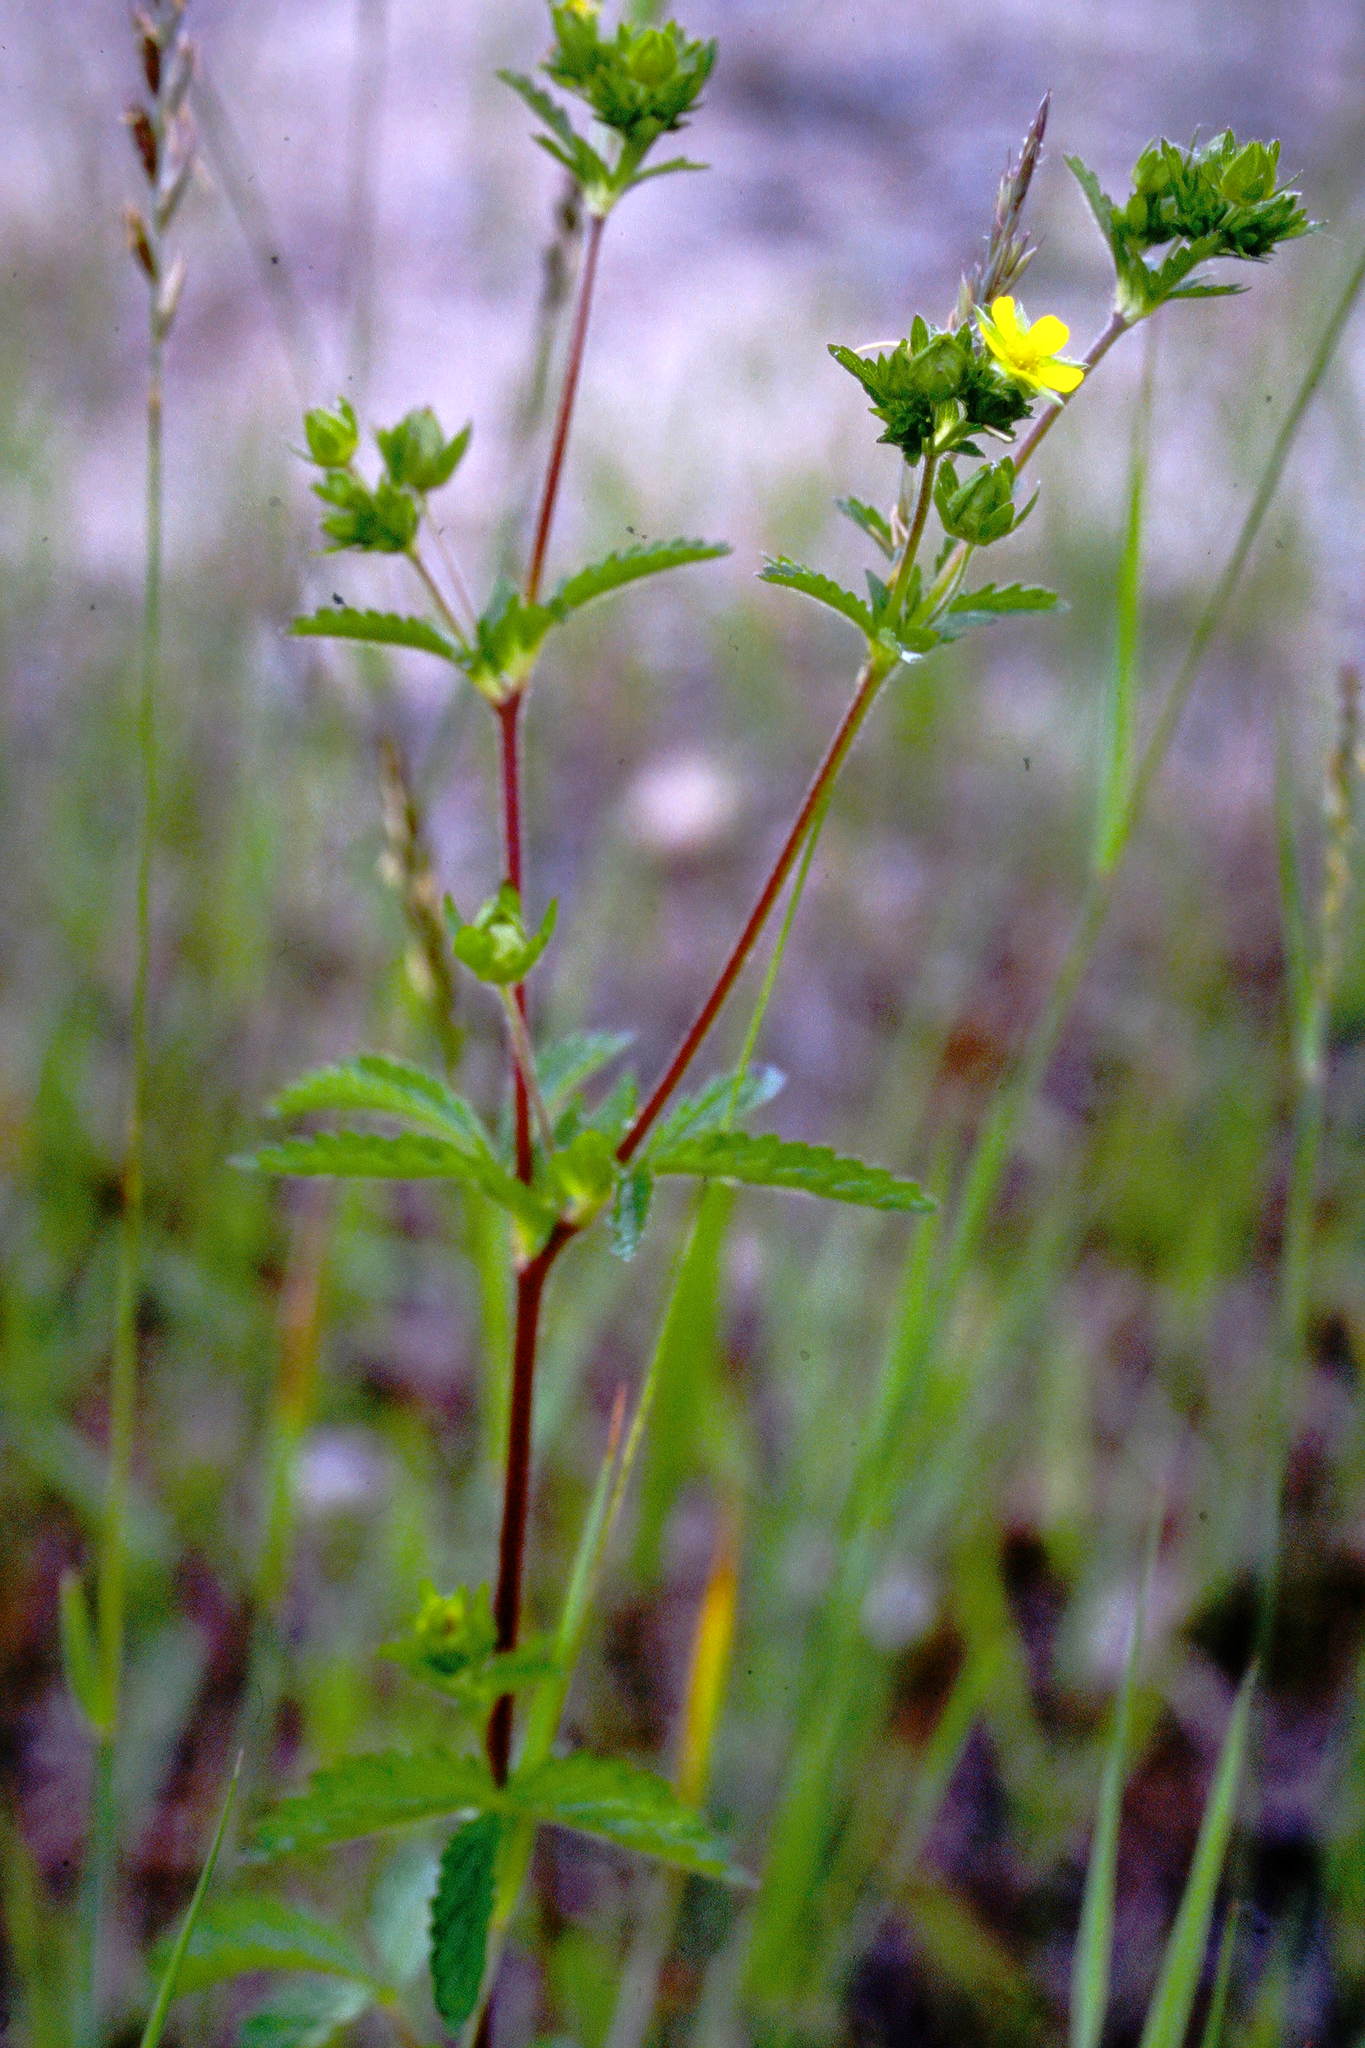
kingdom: Plantae
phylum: Tracheophyta
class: Magnoliopsida
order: Rosales
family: Rosaceae
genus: Potentilla
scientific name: Potentilla norvegica
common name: Ternate-leaved cinquefoil
